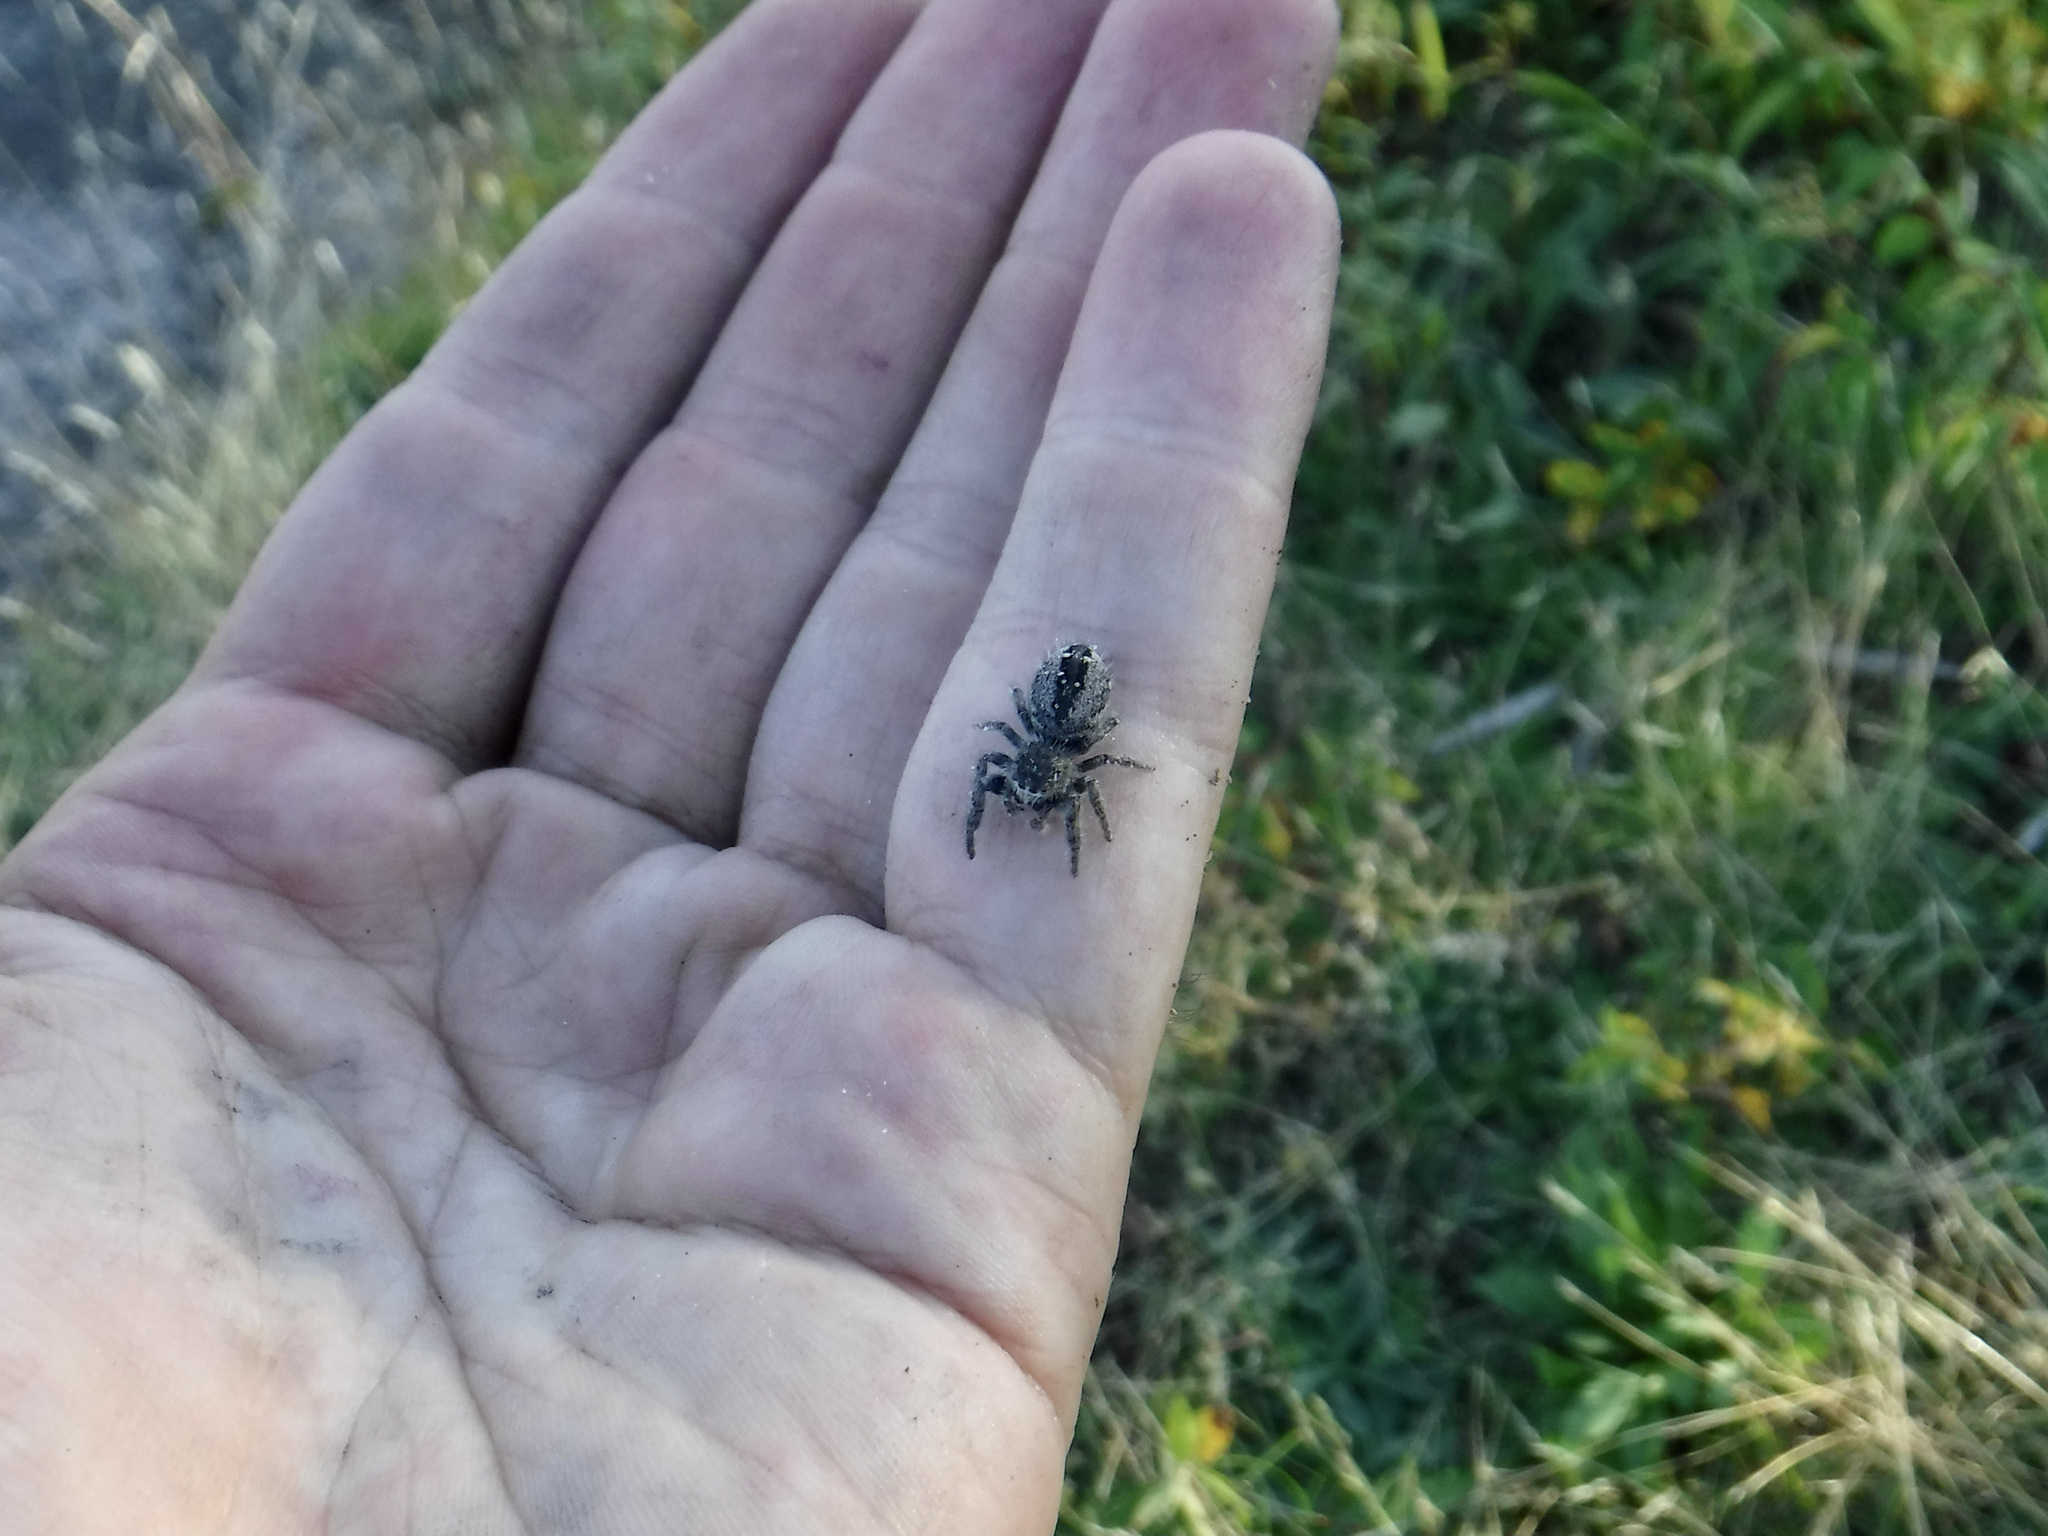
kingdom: Animalia
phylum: Arthropoda
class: Arachnida
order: Araneae
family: Salticidae
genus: Phidippus
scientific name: Phidippus purpuratus
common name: Marbled purple jumping spider
